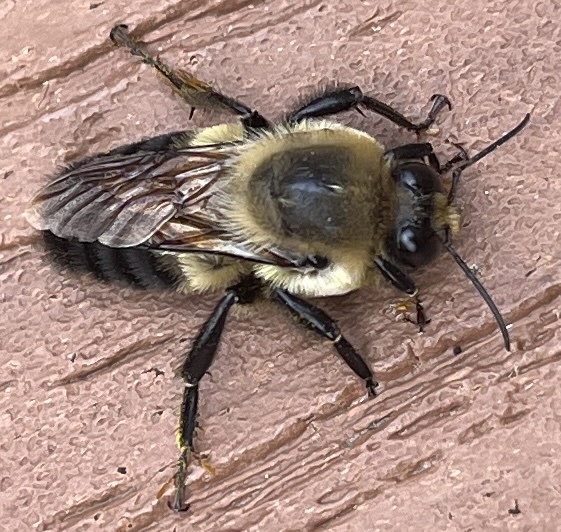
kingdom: Animalia
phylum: Arthropoda
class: Insecta
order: Hymenoptera
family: Apidae
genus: Bombus
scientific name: Bombus griseocollis
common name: Brown-belted bumble bee
